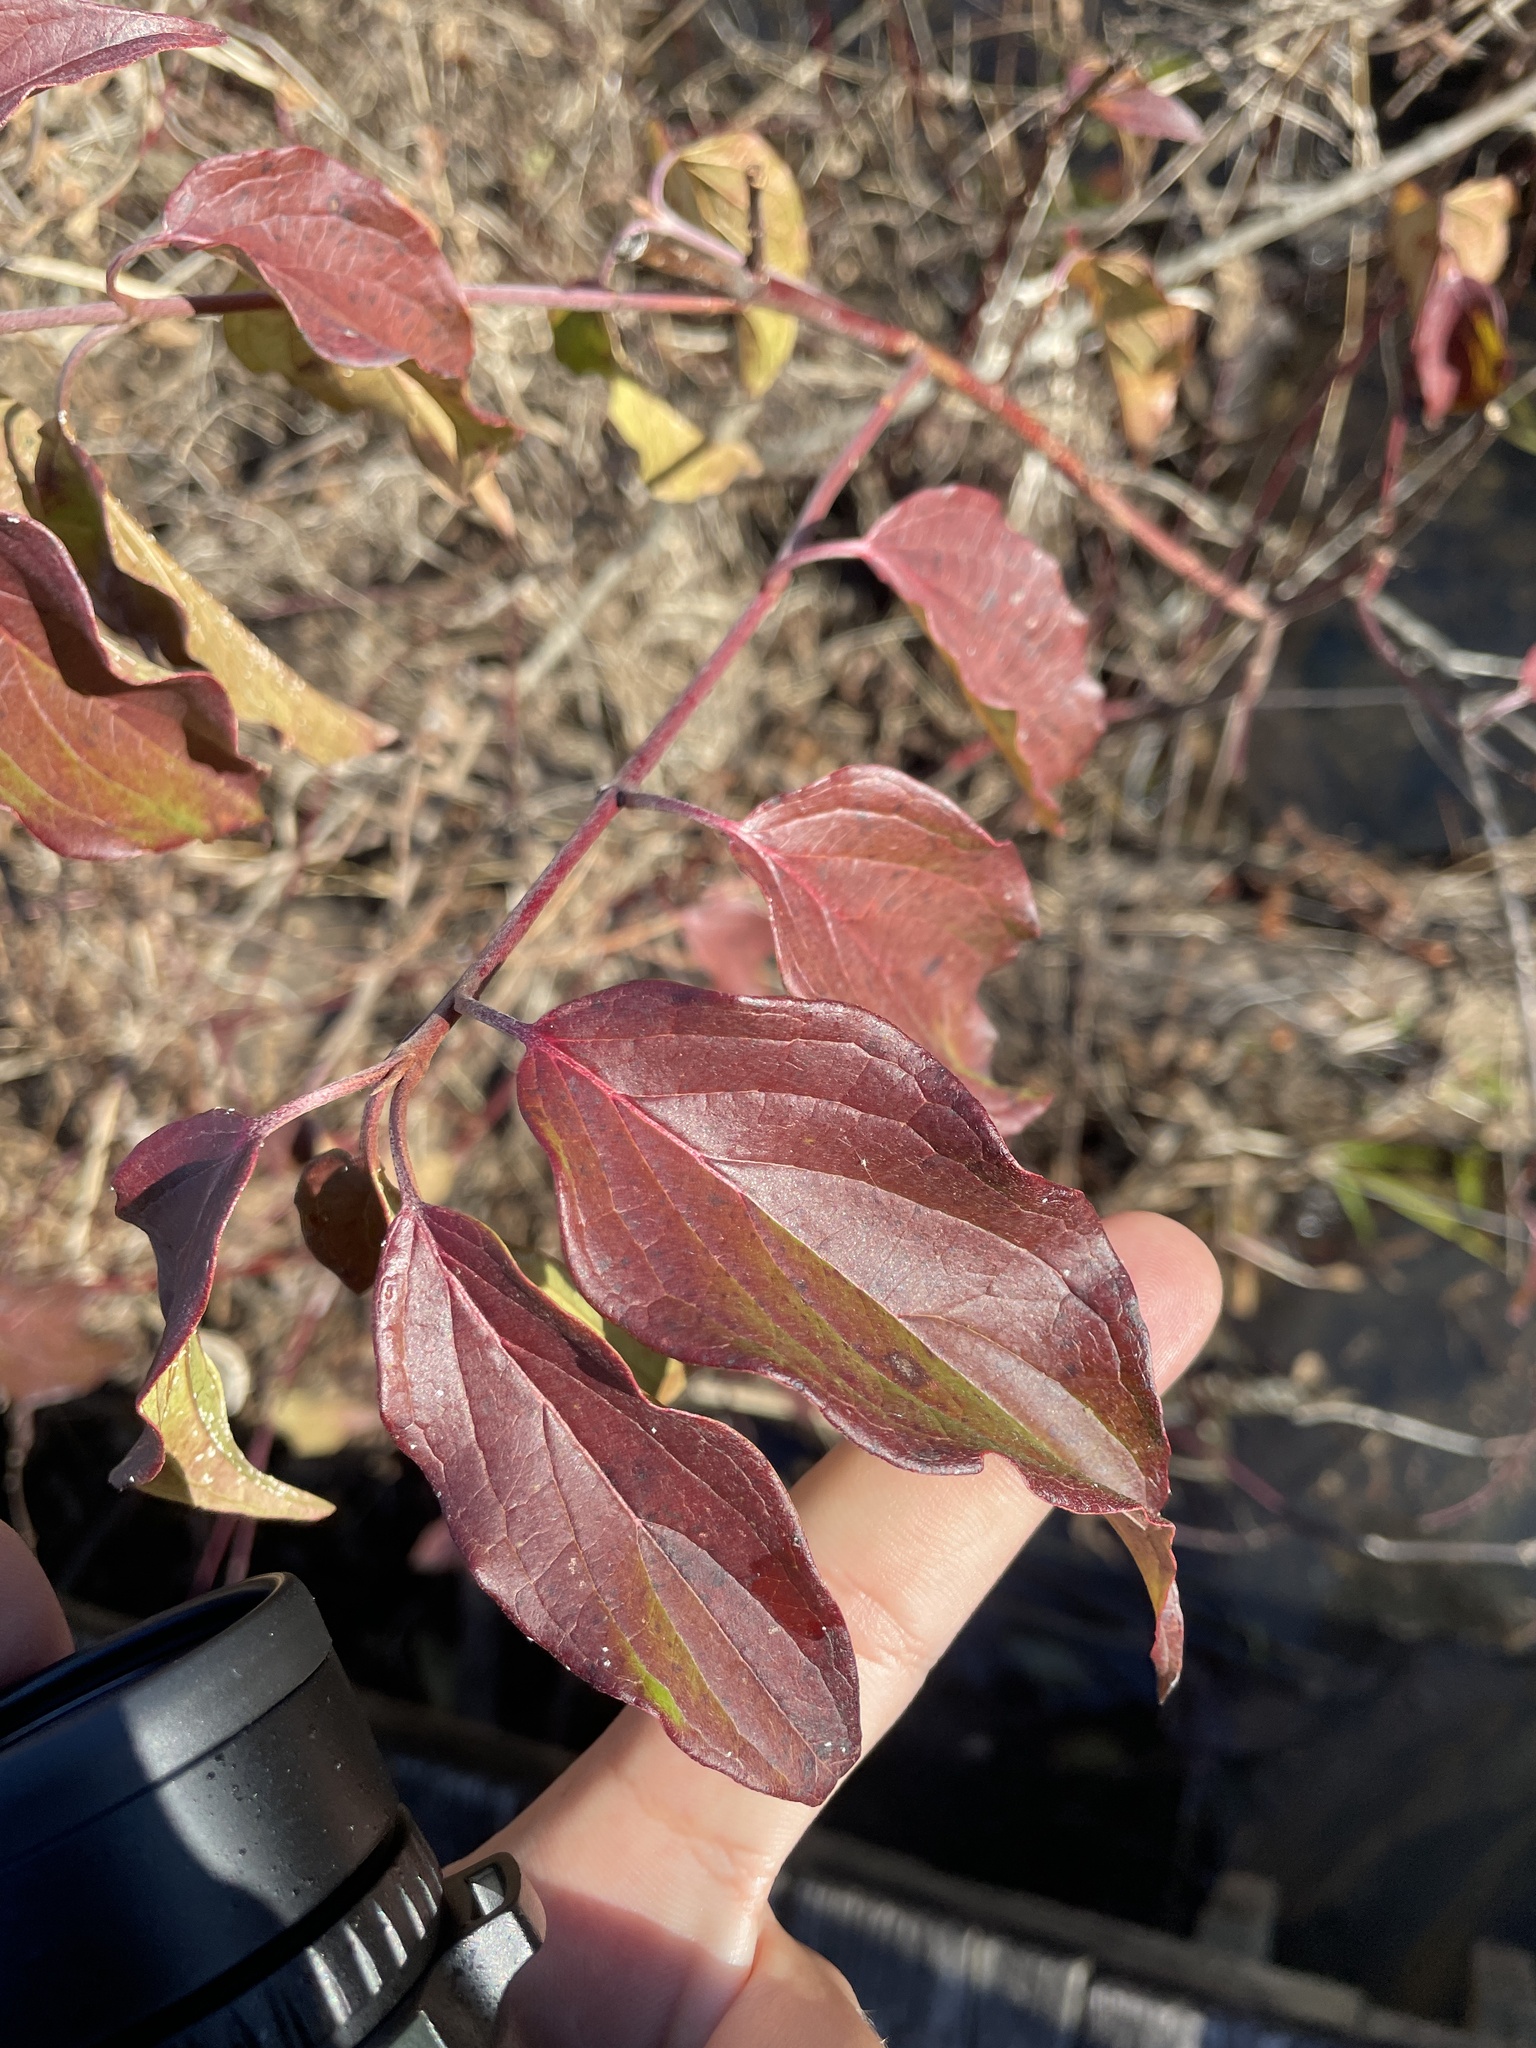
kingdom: Plantae
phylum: Tracheophyta
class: Magnoliopsida
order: Cornales
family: Cornaceae
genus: Cornus
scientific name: Cornus amomum
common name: Silky dogwood
